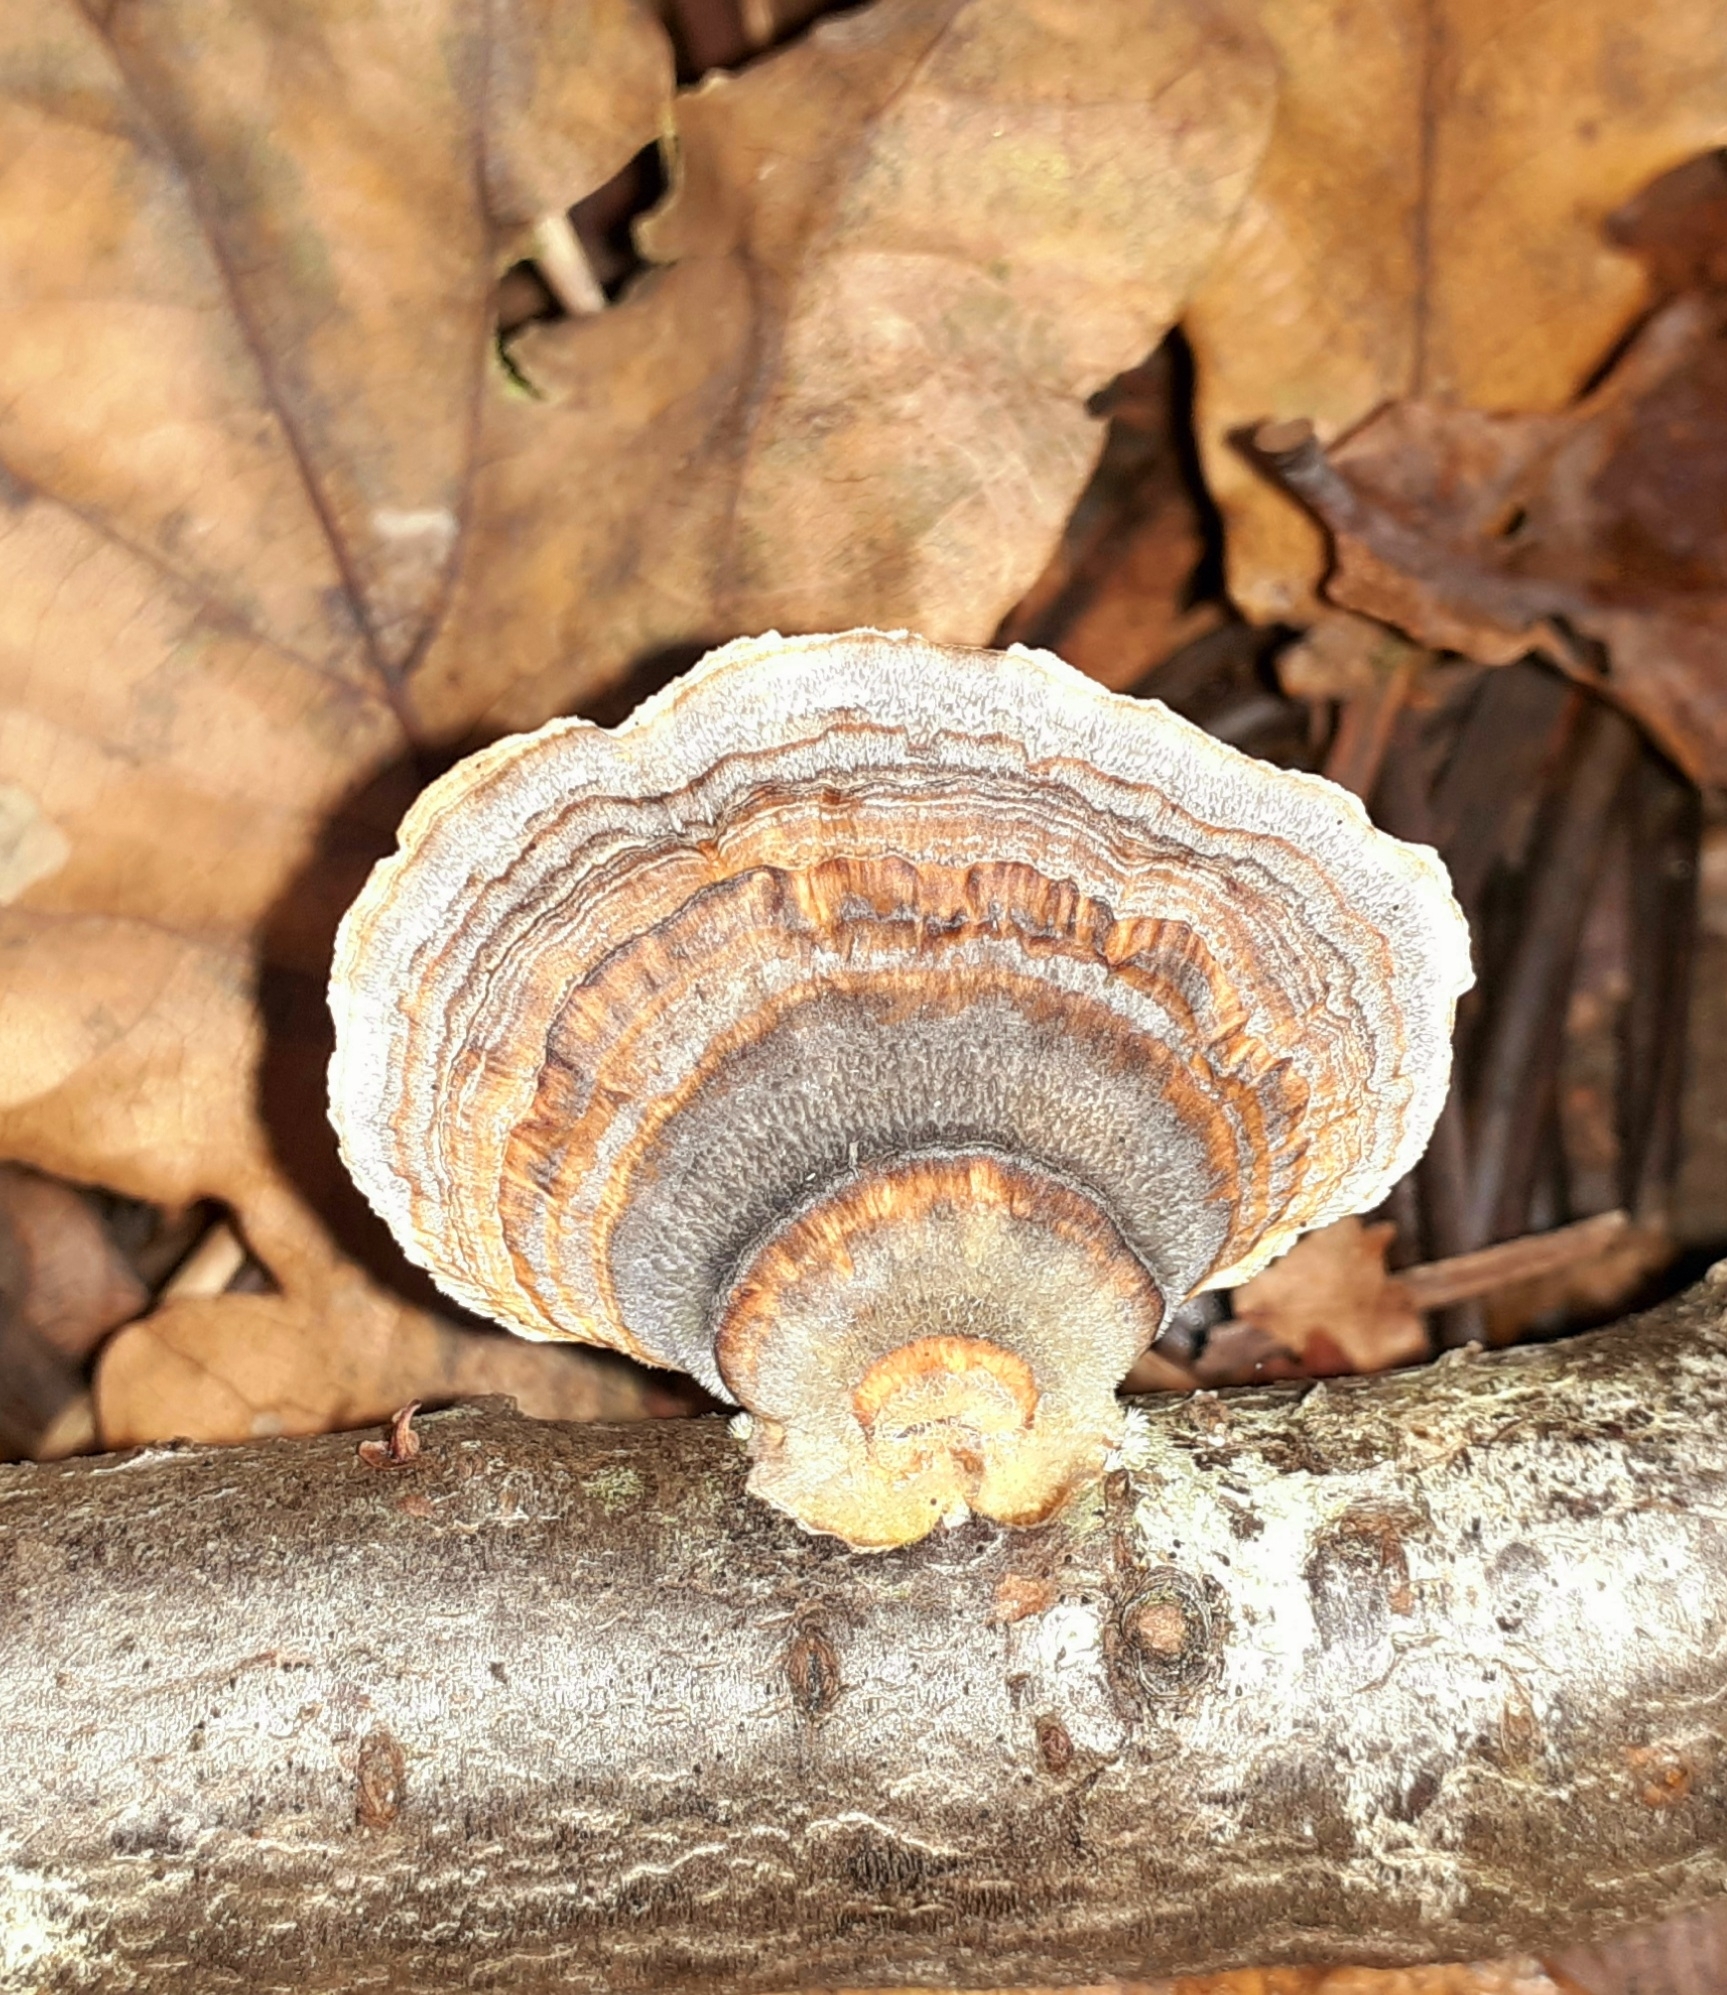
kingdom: Fungi
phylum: Basidiomycota
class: Agaricomycetes
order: Polyporales
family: Polyporaceae
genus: Trametes
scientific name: Trametes versicolor
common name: Turkeytail
